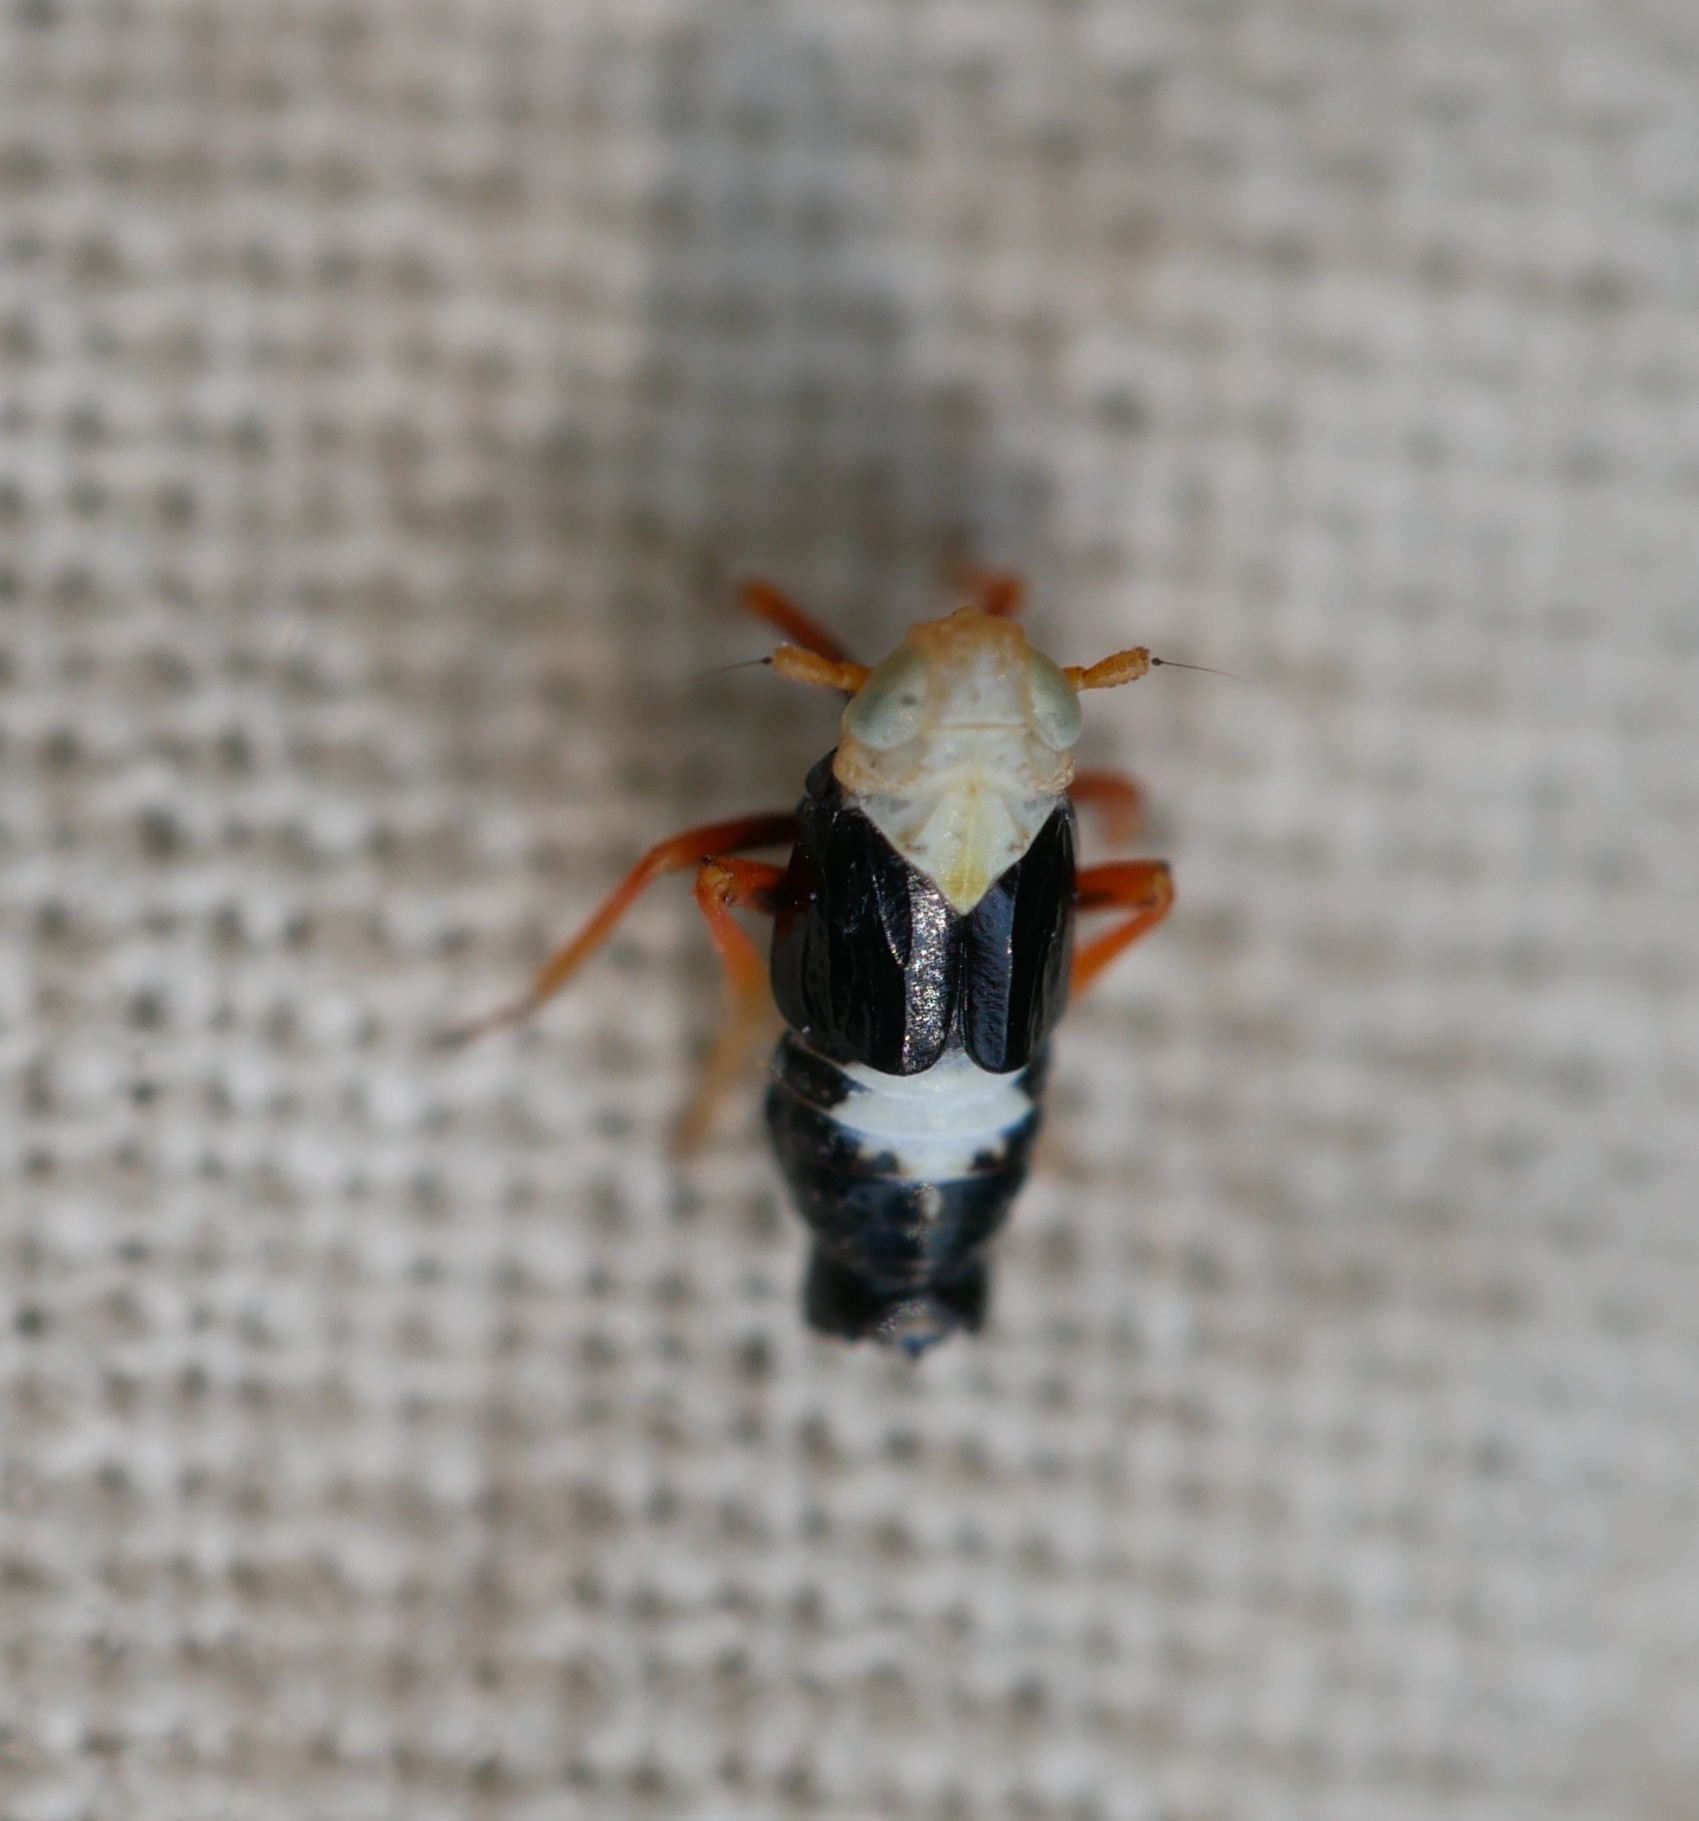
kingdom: Animalia
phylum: Arthropoda
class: Insecta
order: Hemiptera
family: Delphacidae
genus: Laccocera
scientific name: Laccocera flava
